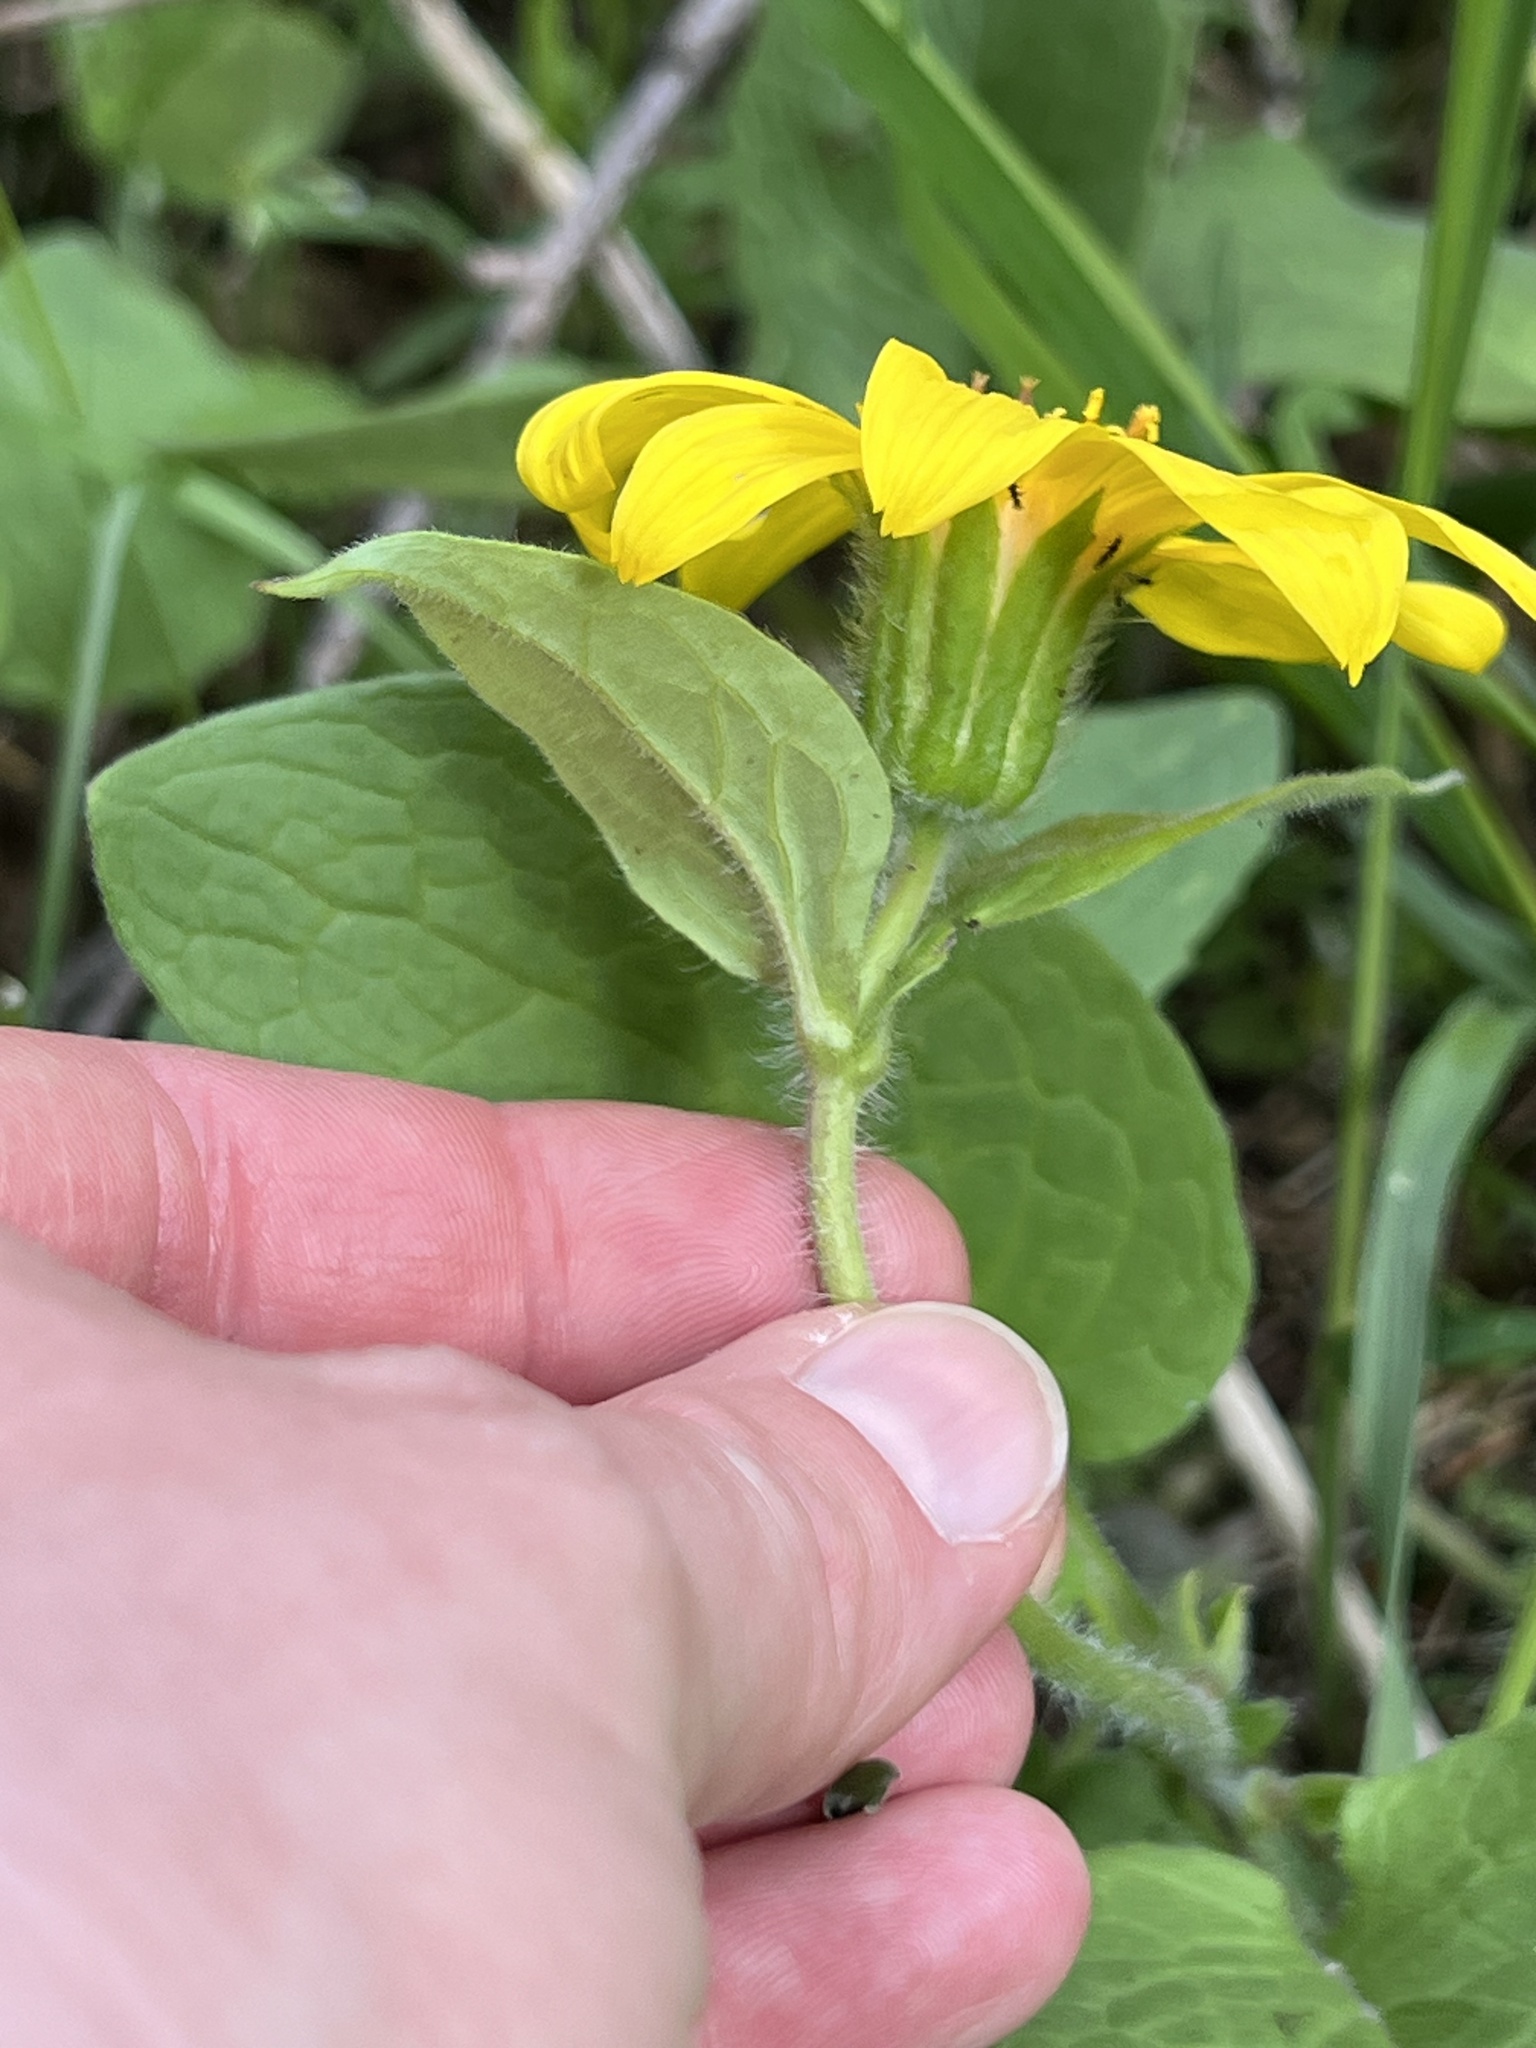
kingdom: Plantae
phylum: Tracheophyta
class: Magnoliopsida
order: Asterales
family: Asteraceae
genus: Arnica
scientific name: Arnica cordifolia
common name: Heart-leaf arnica
